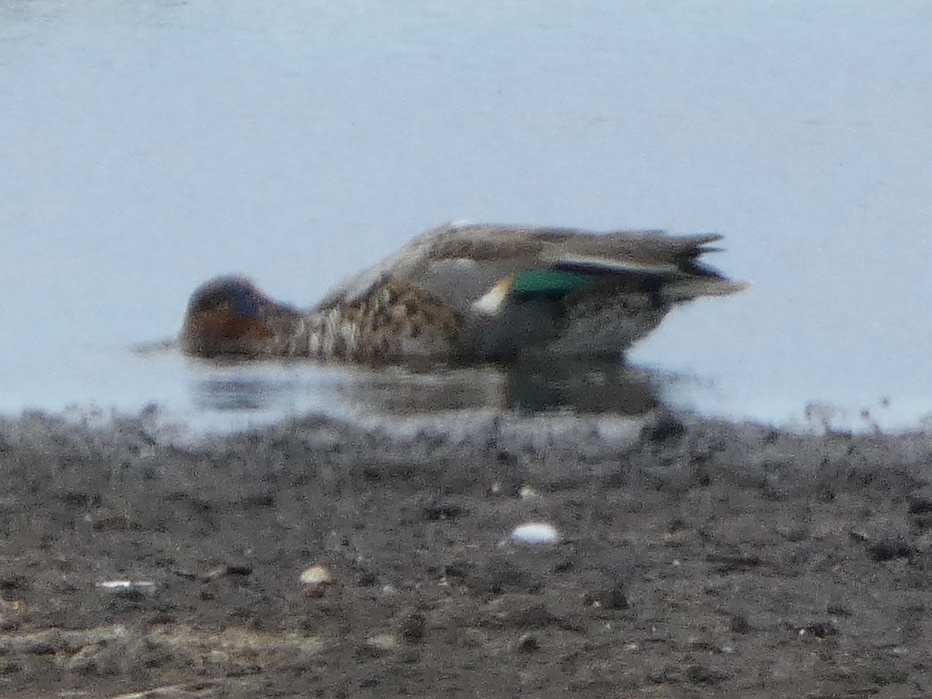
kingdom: Animalia
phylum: Chordata
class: Aves
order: Anseriformes
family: Anatidae
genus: Anas
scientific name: Anas crecca
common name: Eurasian teal
